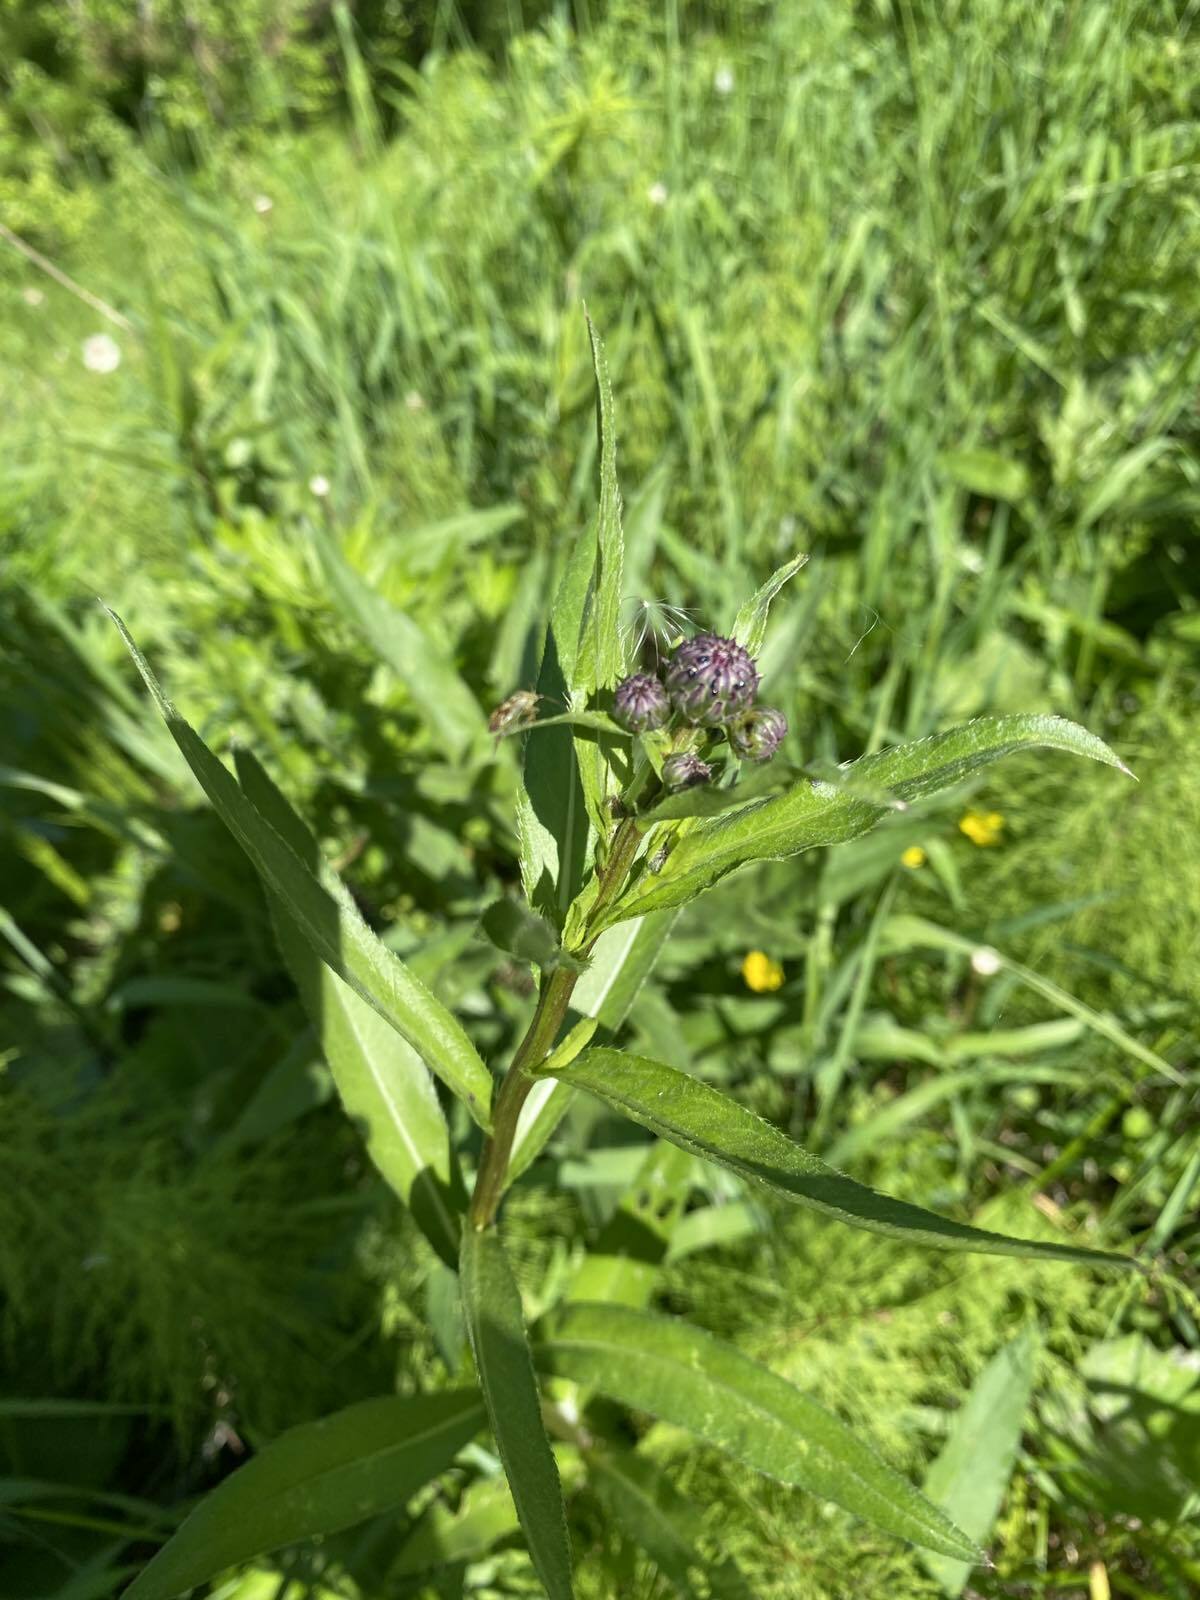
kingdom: Plantae
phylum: Tracheophyta
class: Magnoliopsida
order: Asterales
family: Asteraceae
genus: Cirsium
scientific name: Cirsium arvense
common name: Creeping thistle
